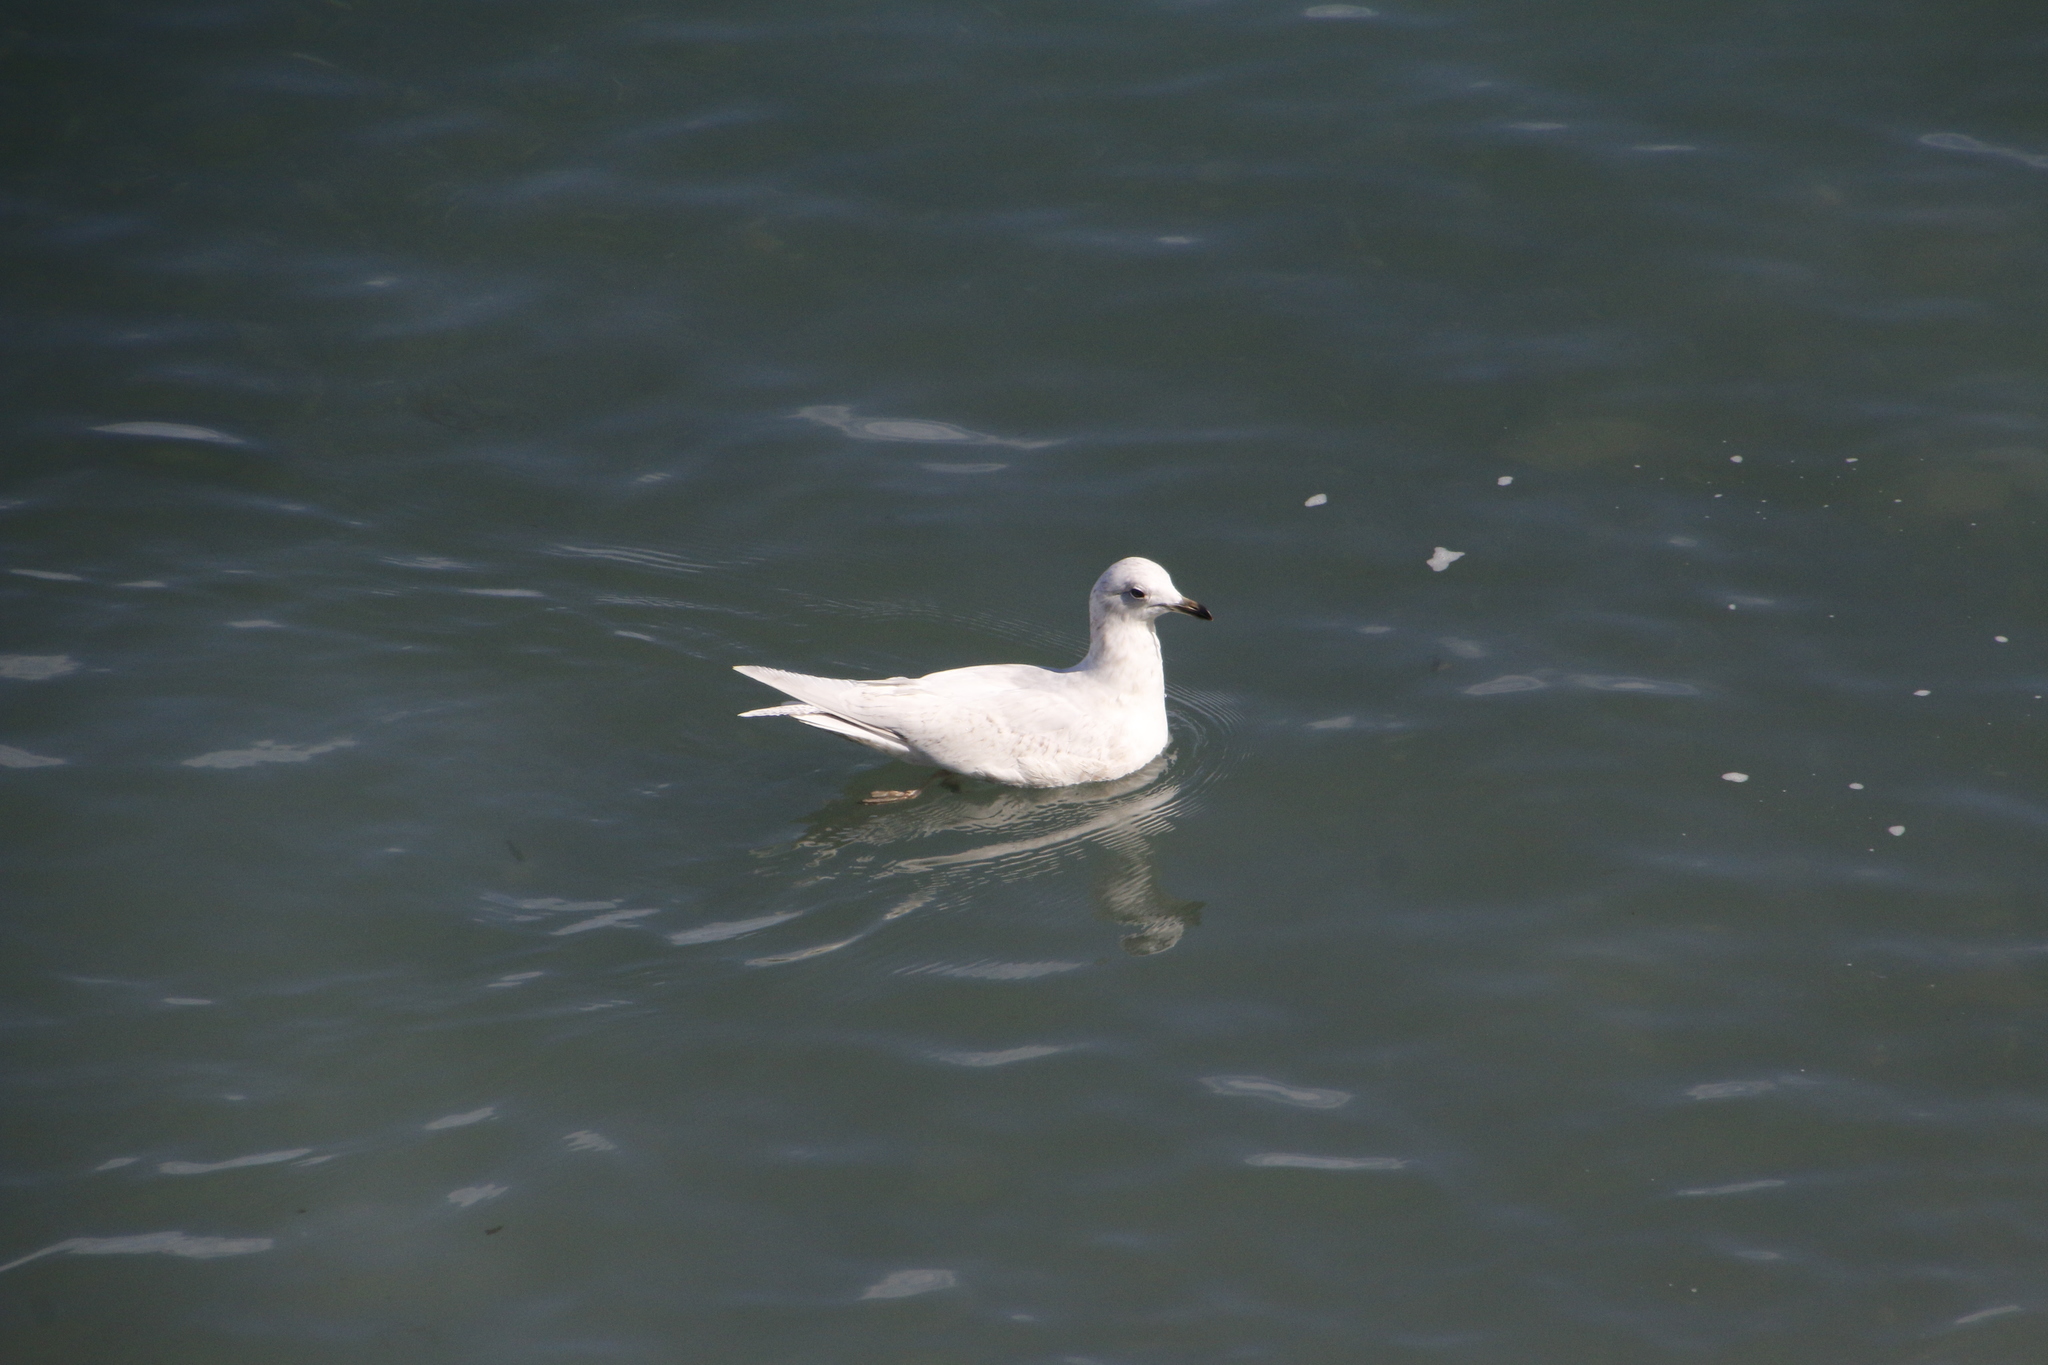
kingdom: Animalia
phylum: Chordata
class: Aves
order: Charadriiformes
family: Laridae
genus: Larus
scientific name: Larus glaucoides
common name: Iceland gull
